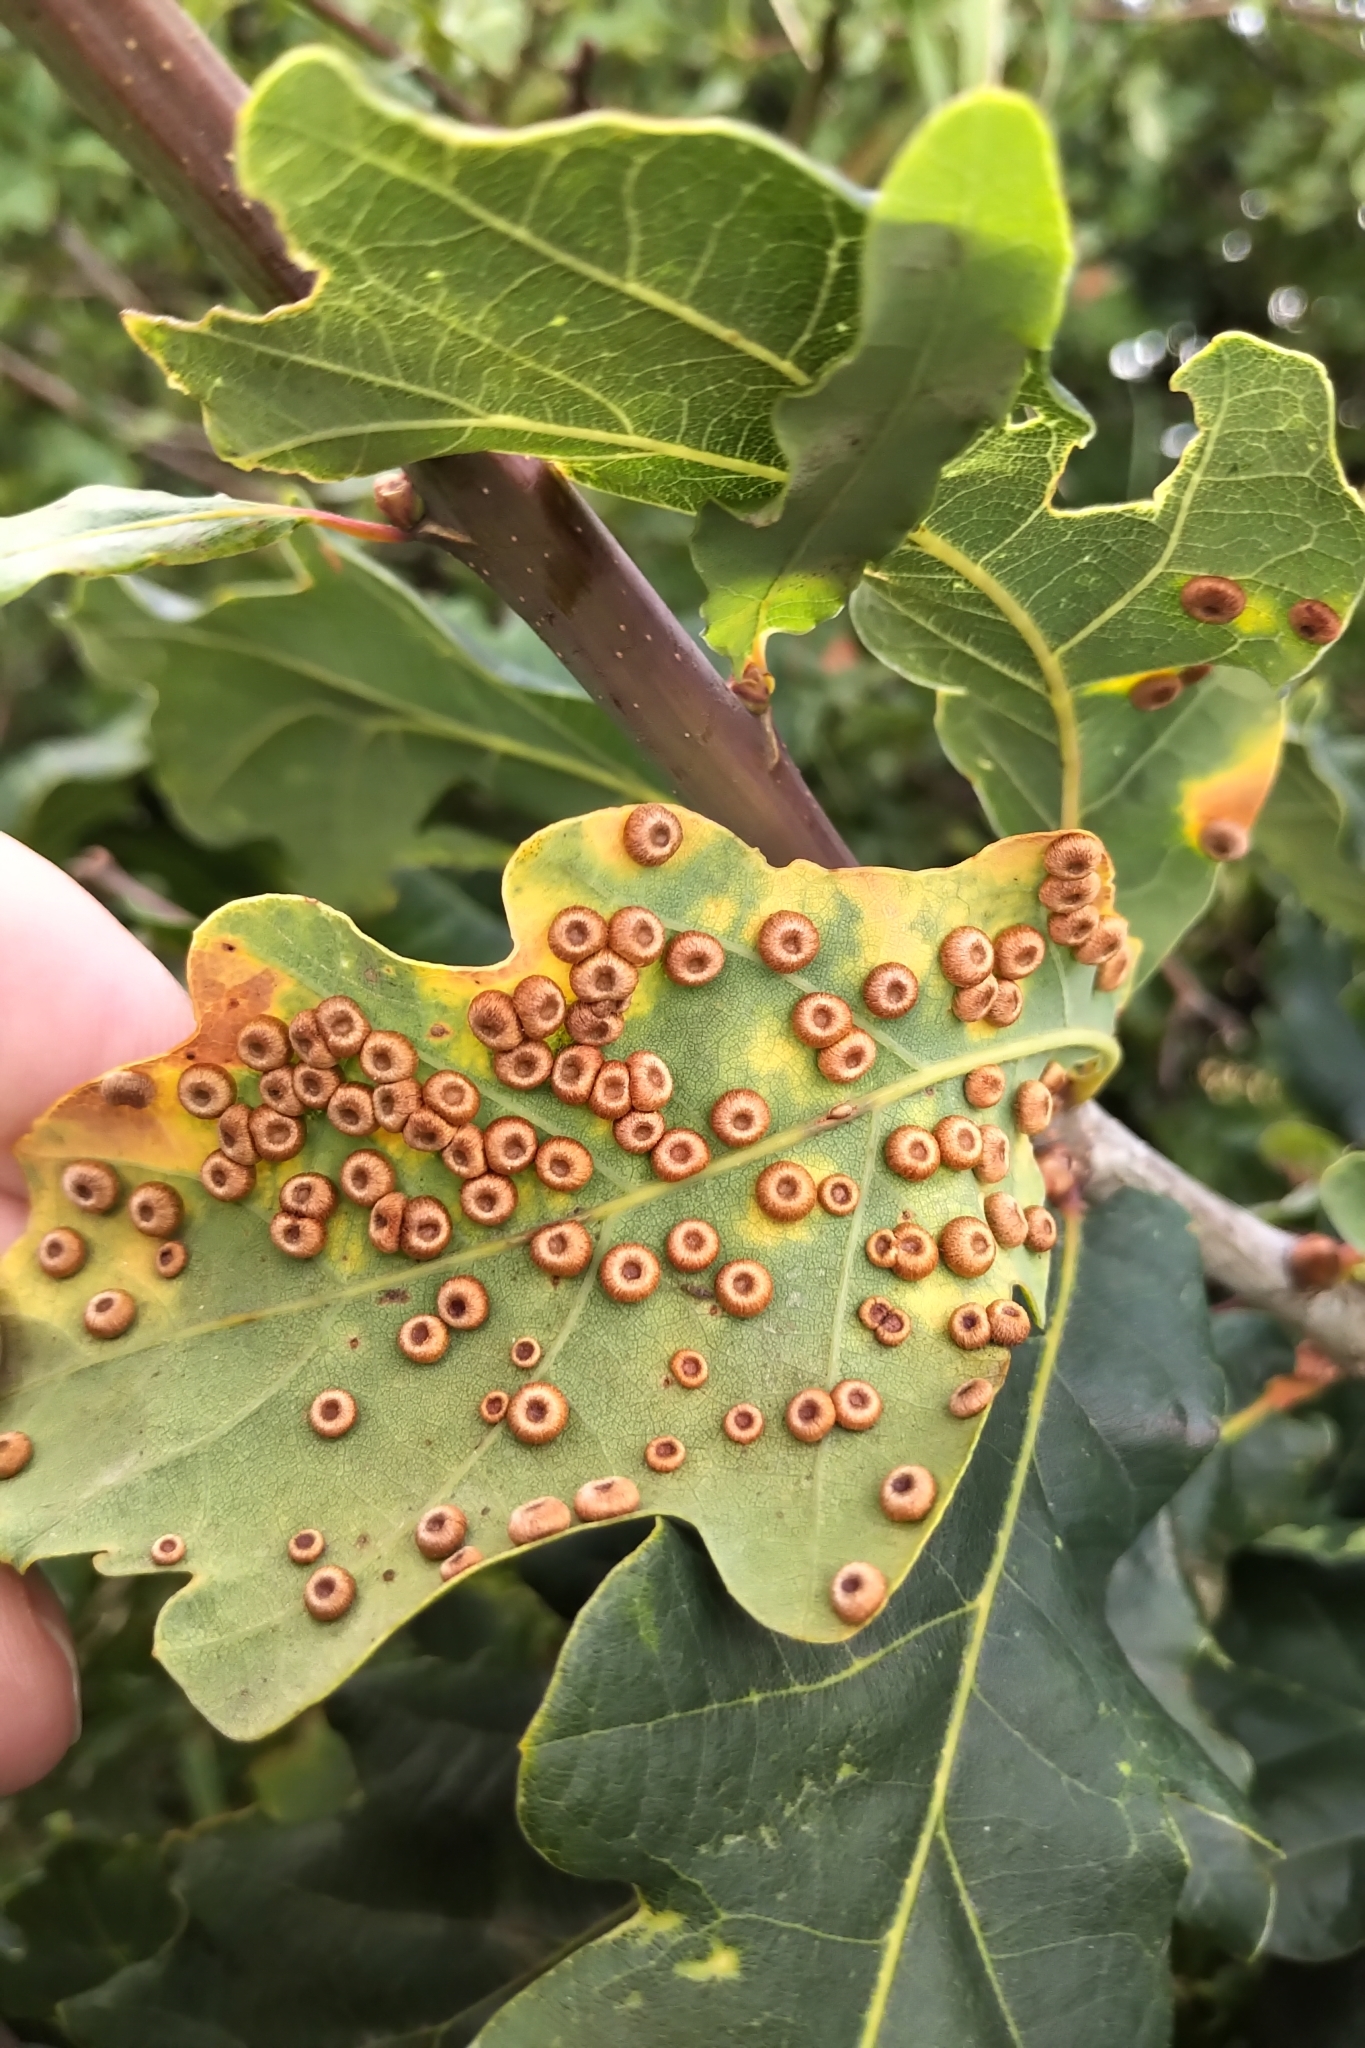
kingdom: Animalia
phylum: Arthropoda
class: Insecta
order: Hymenoptera
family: Cynipidae
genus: Neuroterus
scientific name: Neuroterus numismalis
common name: Silk-button spangle gall
